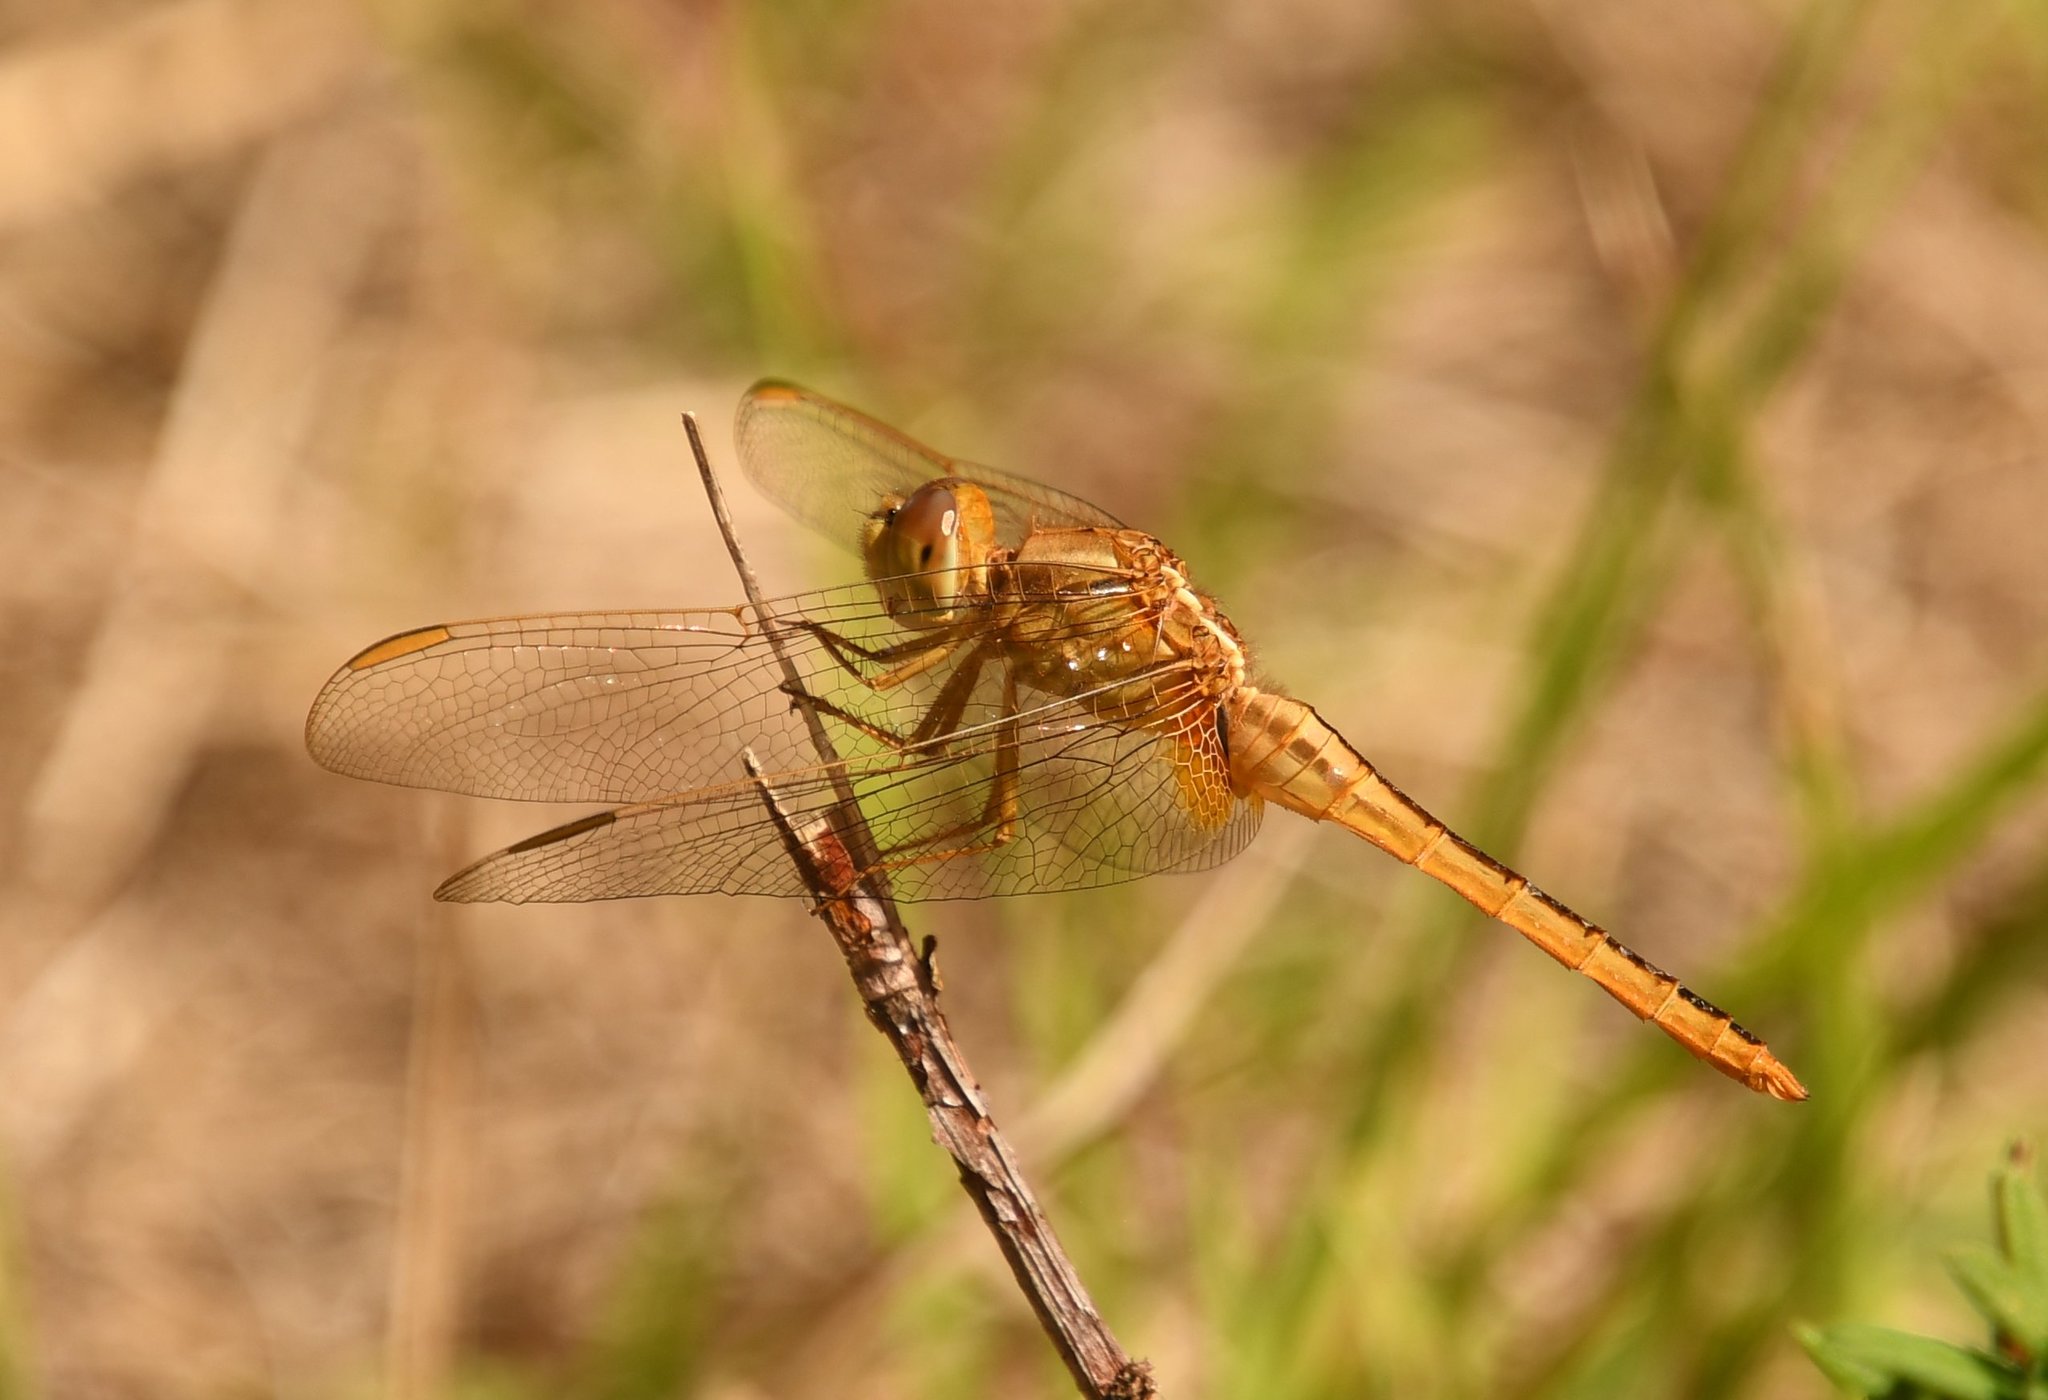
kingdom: Animalia
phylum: Arthropoda
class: Insecta
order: Odonata
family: Libellulidae
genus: Crocothemis
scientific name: Crocothemis servilia
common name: Scarlet skimmer
